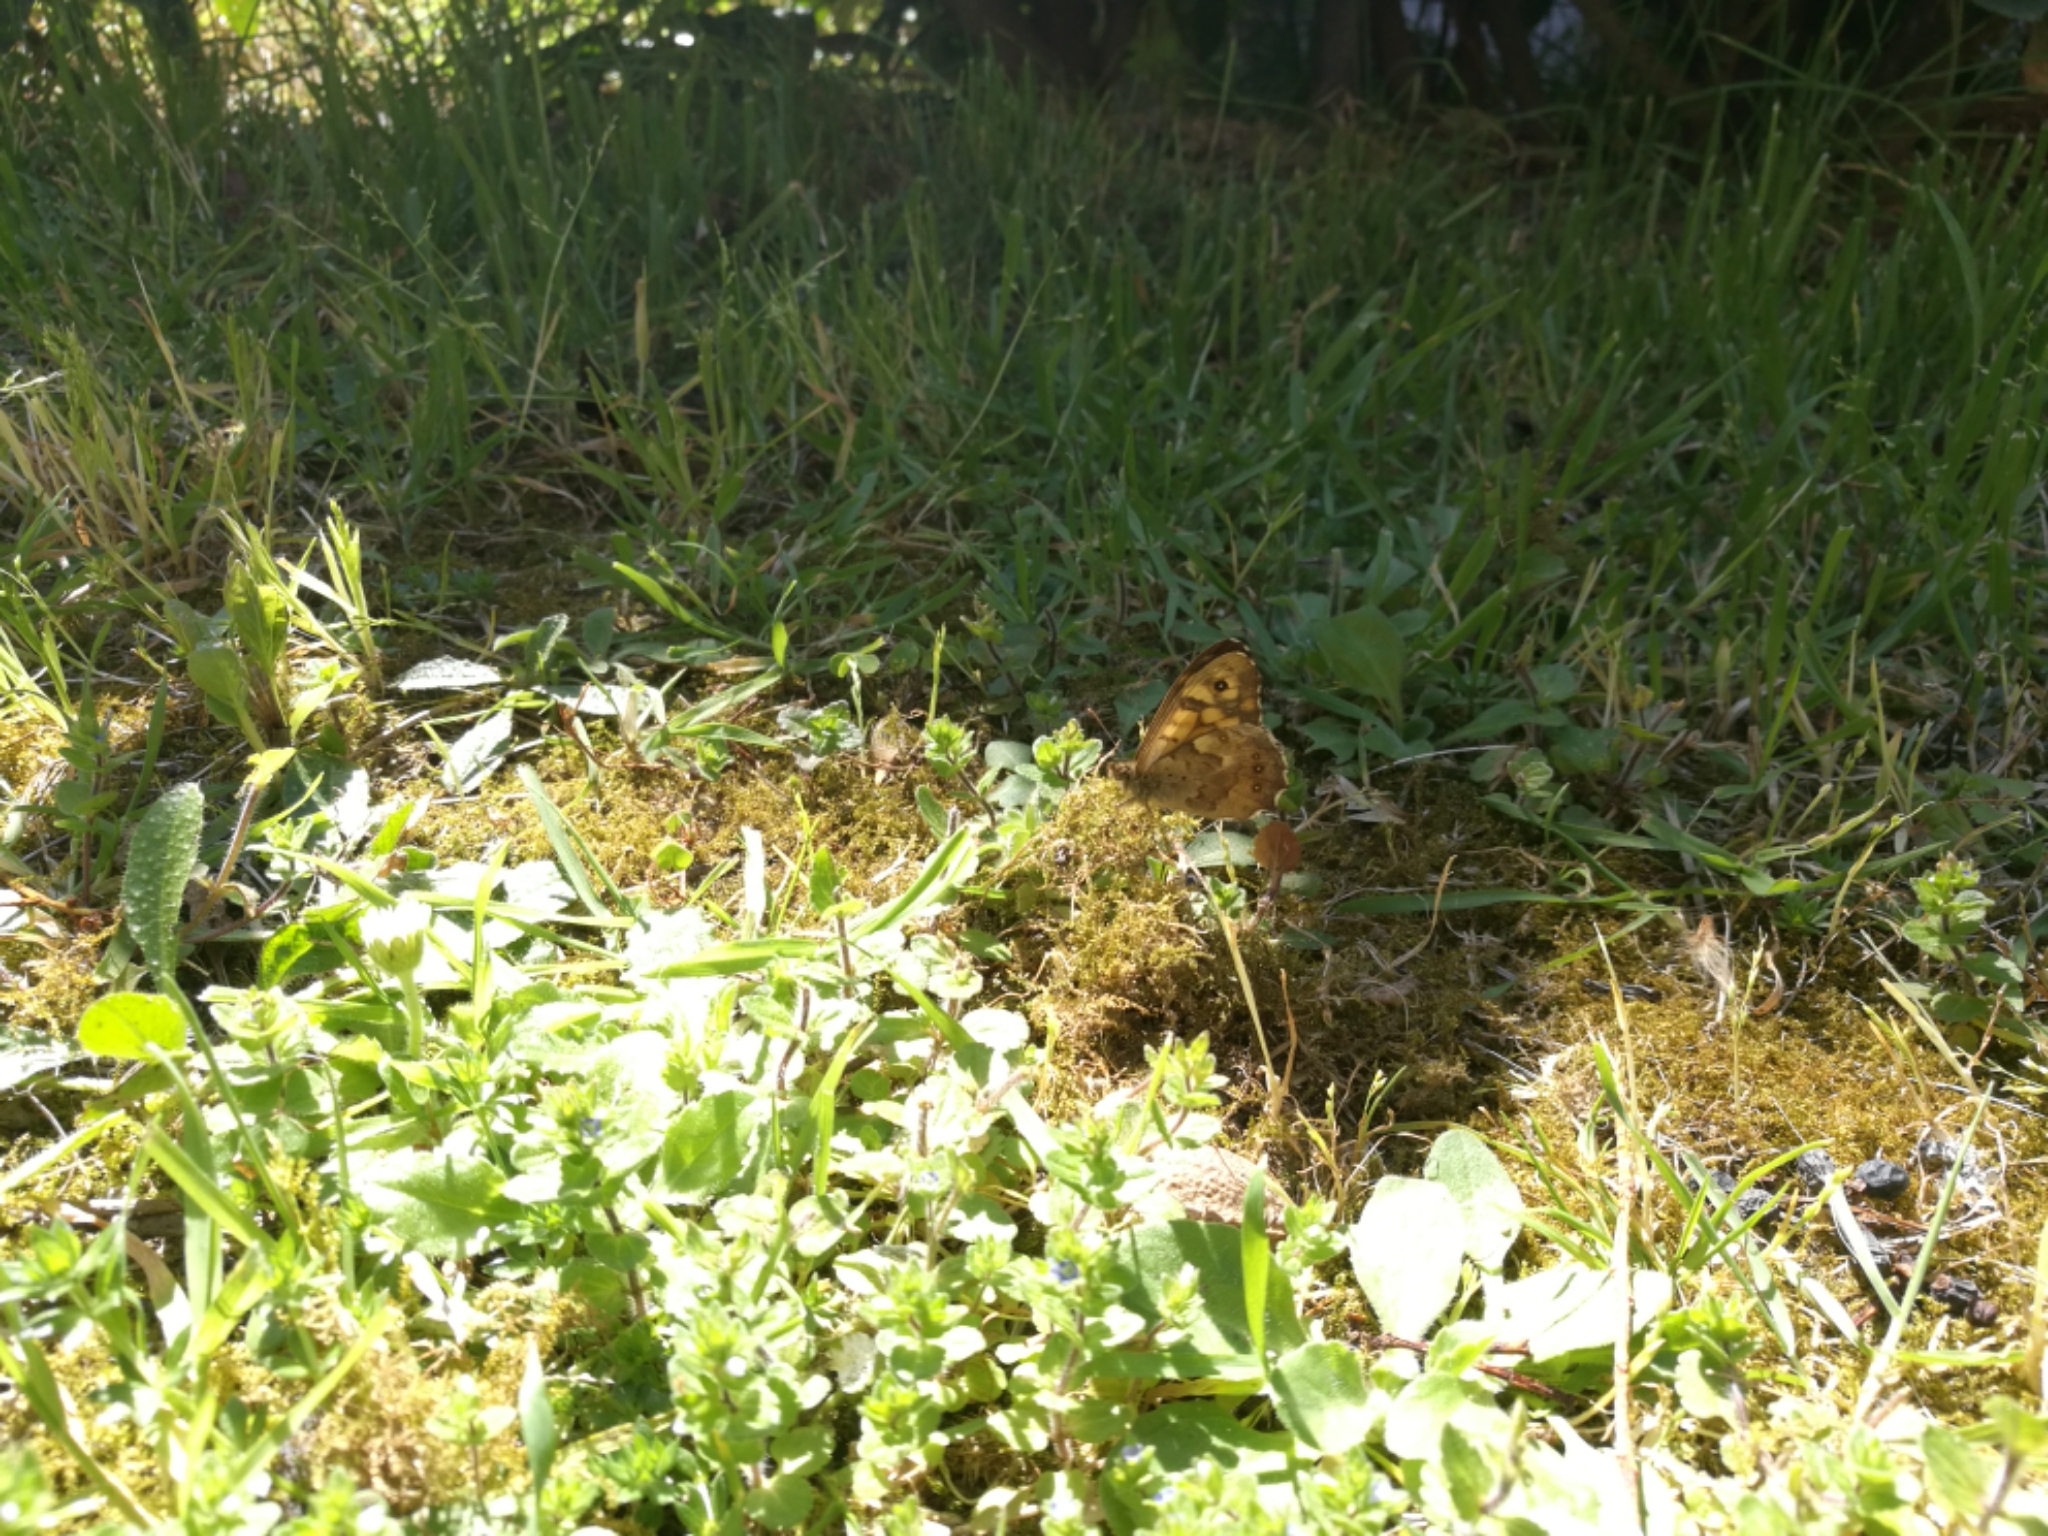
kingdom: Animalia
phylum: Arthropoda
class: Insecta
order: Lepidoptera
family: Nymphalidae
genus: Pararge
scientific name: Pararge aegeria
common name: Speckled wood
